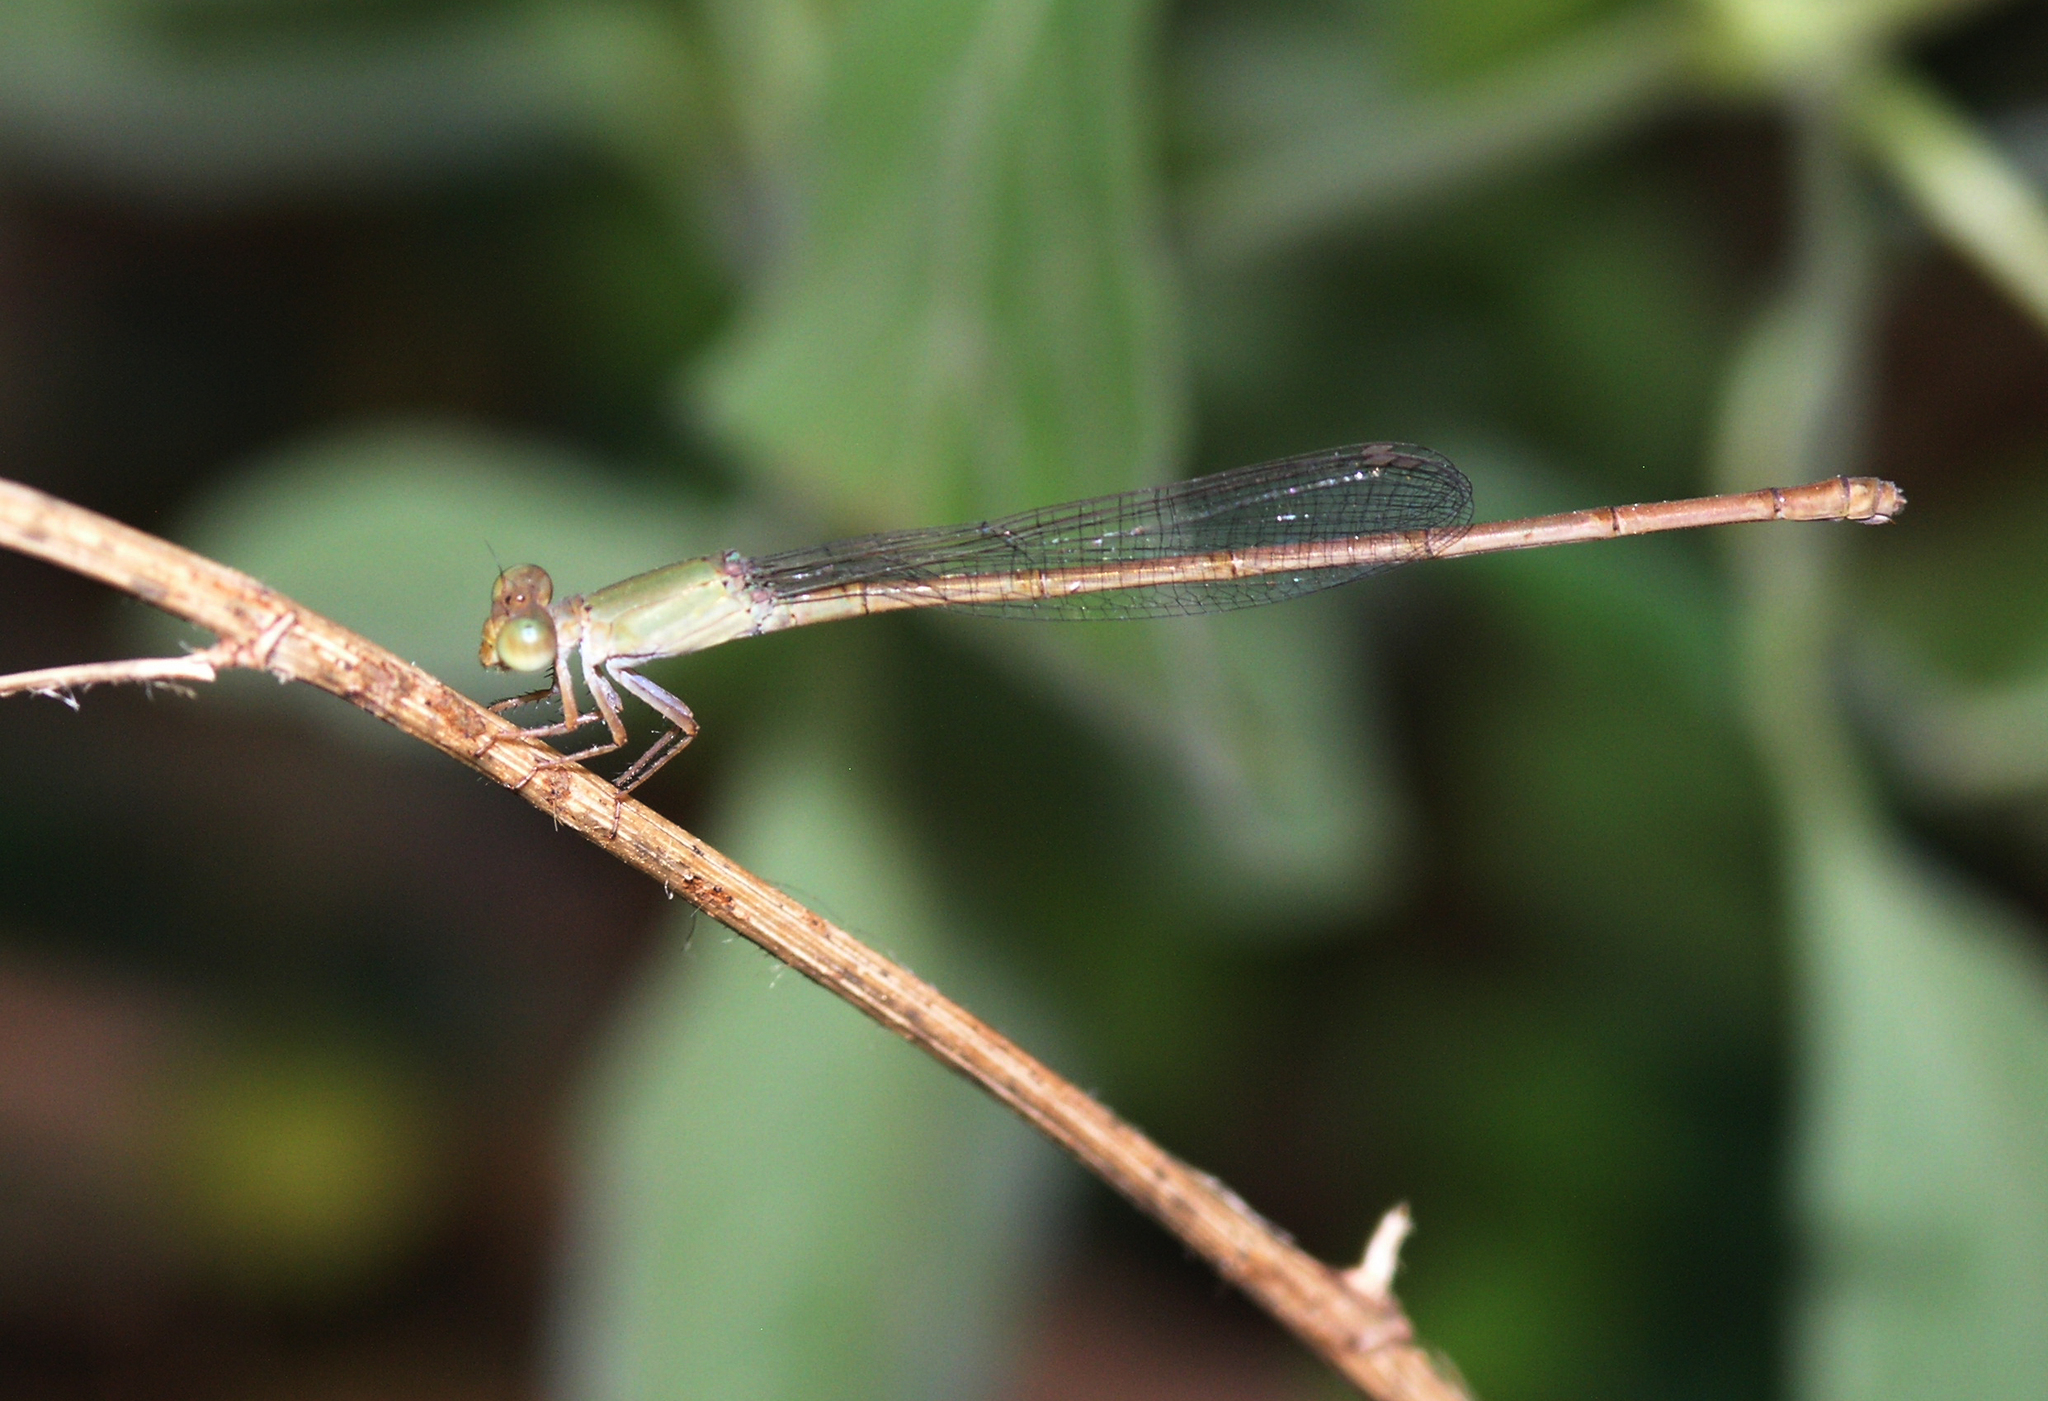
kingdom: Animalia
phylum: Arthropoda
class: Insecta
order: Odonata
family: Coenagrionidae
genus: Ceriagrion
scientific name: Ceriagrion olivaceum
